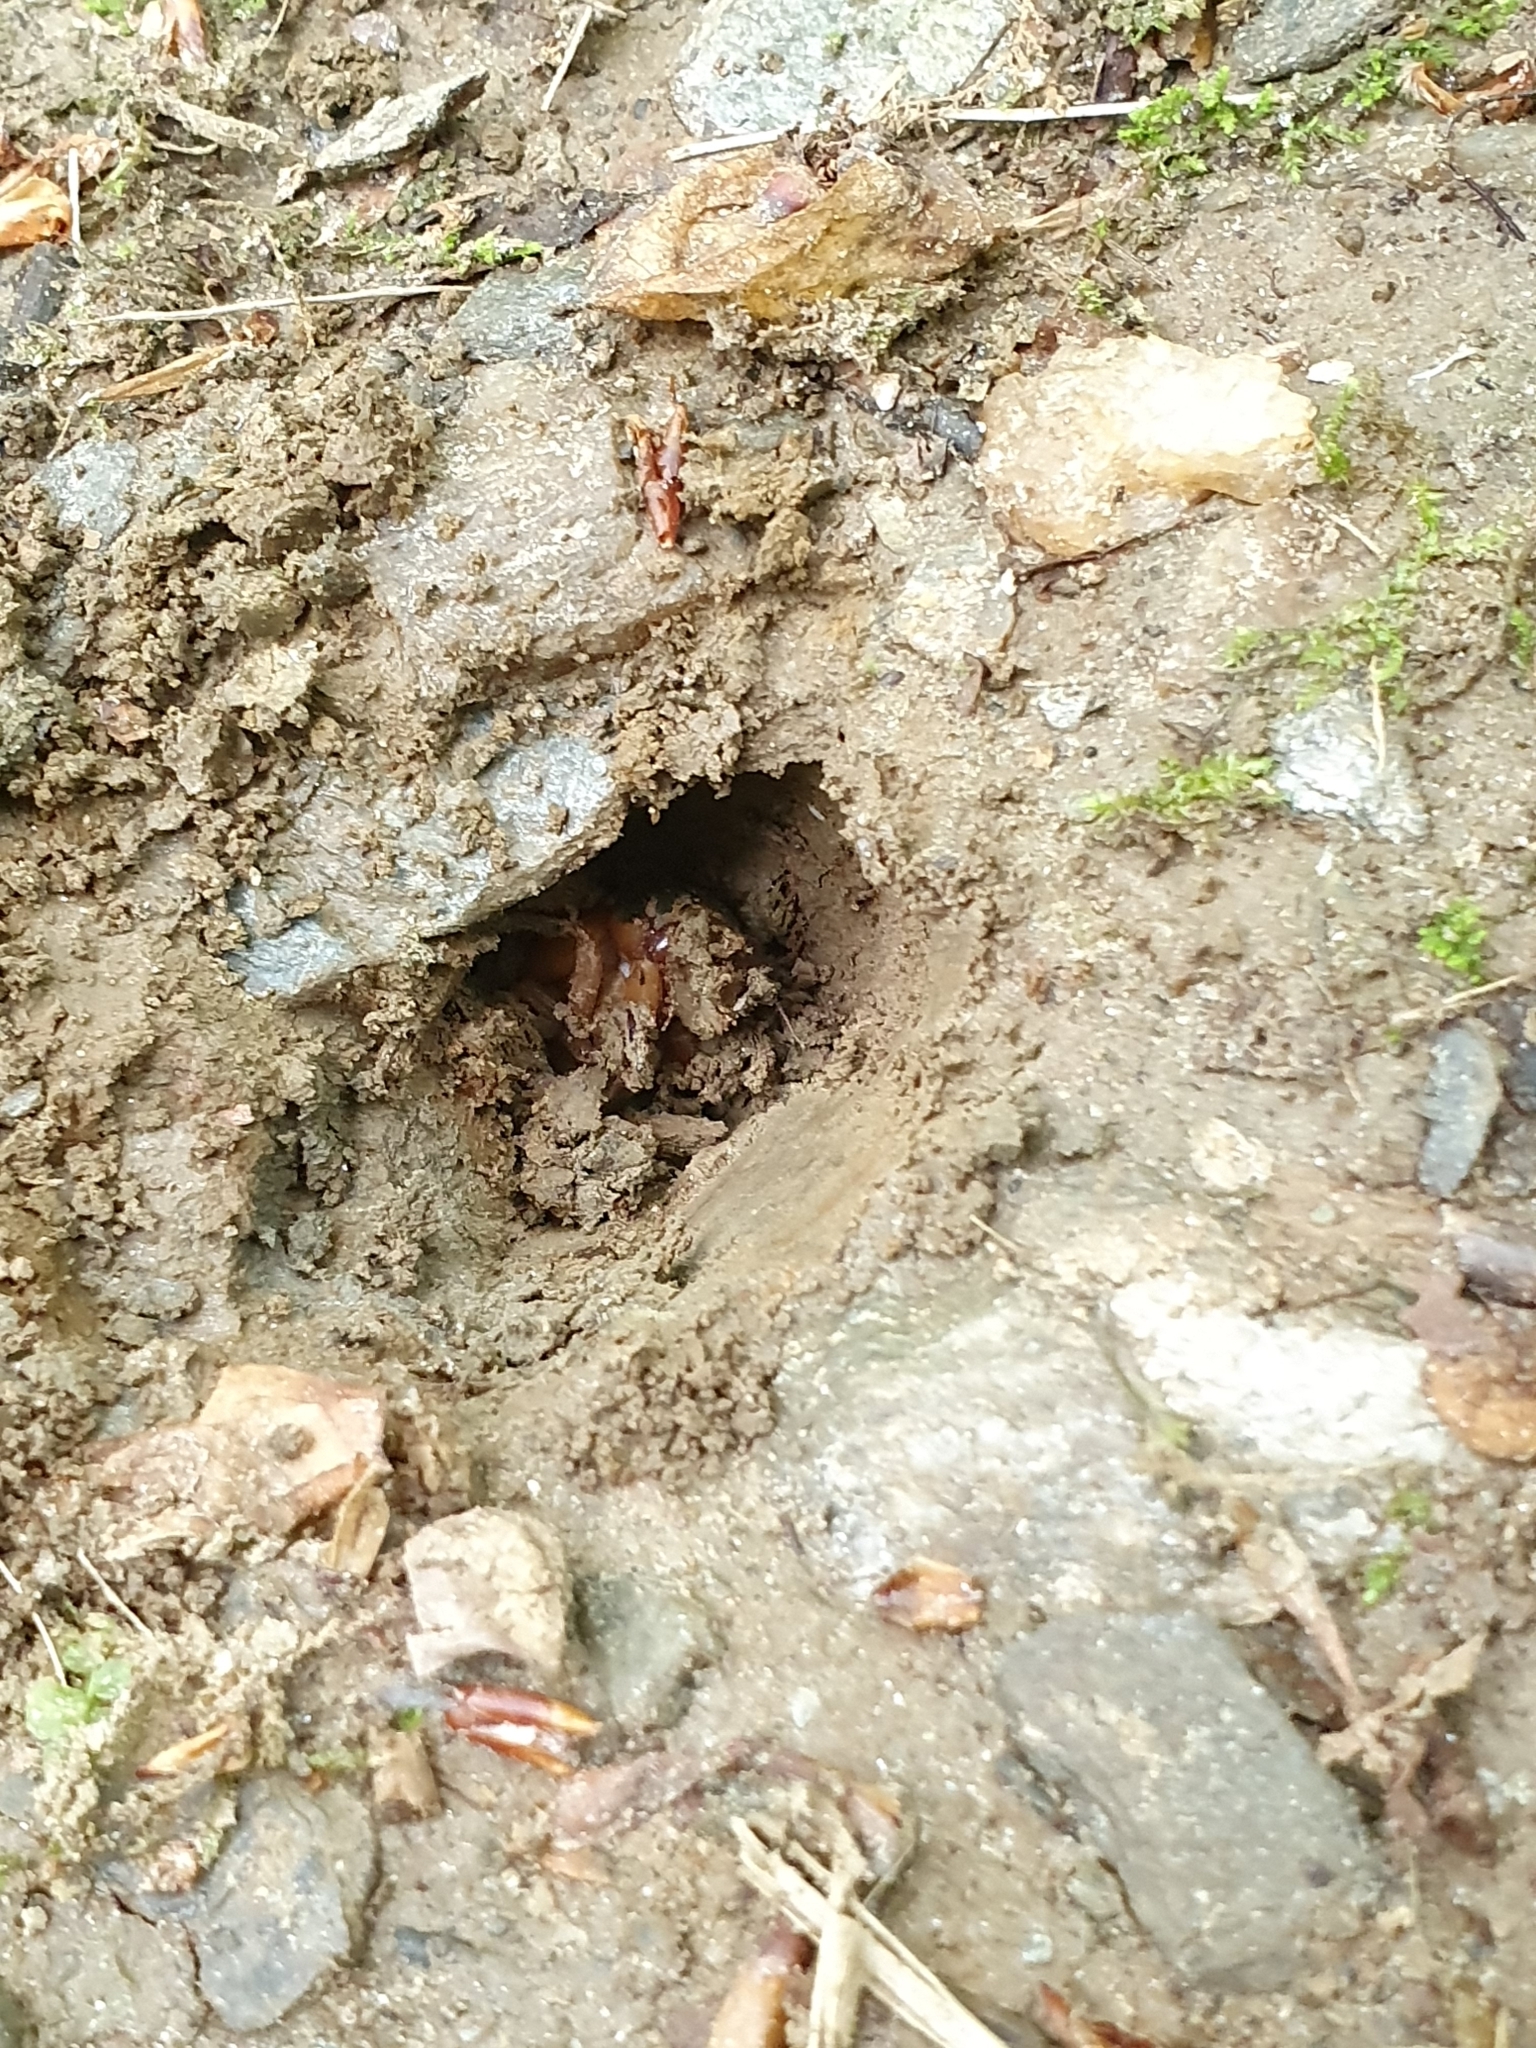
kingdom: Animalia
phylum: Arthropoda
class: Insecta
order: Hemiptera
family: Cicadidae
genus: Magicicada
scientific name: Magicicada
